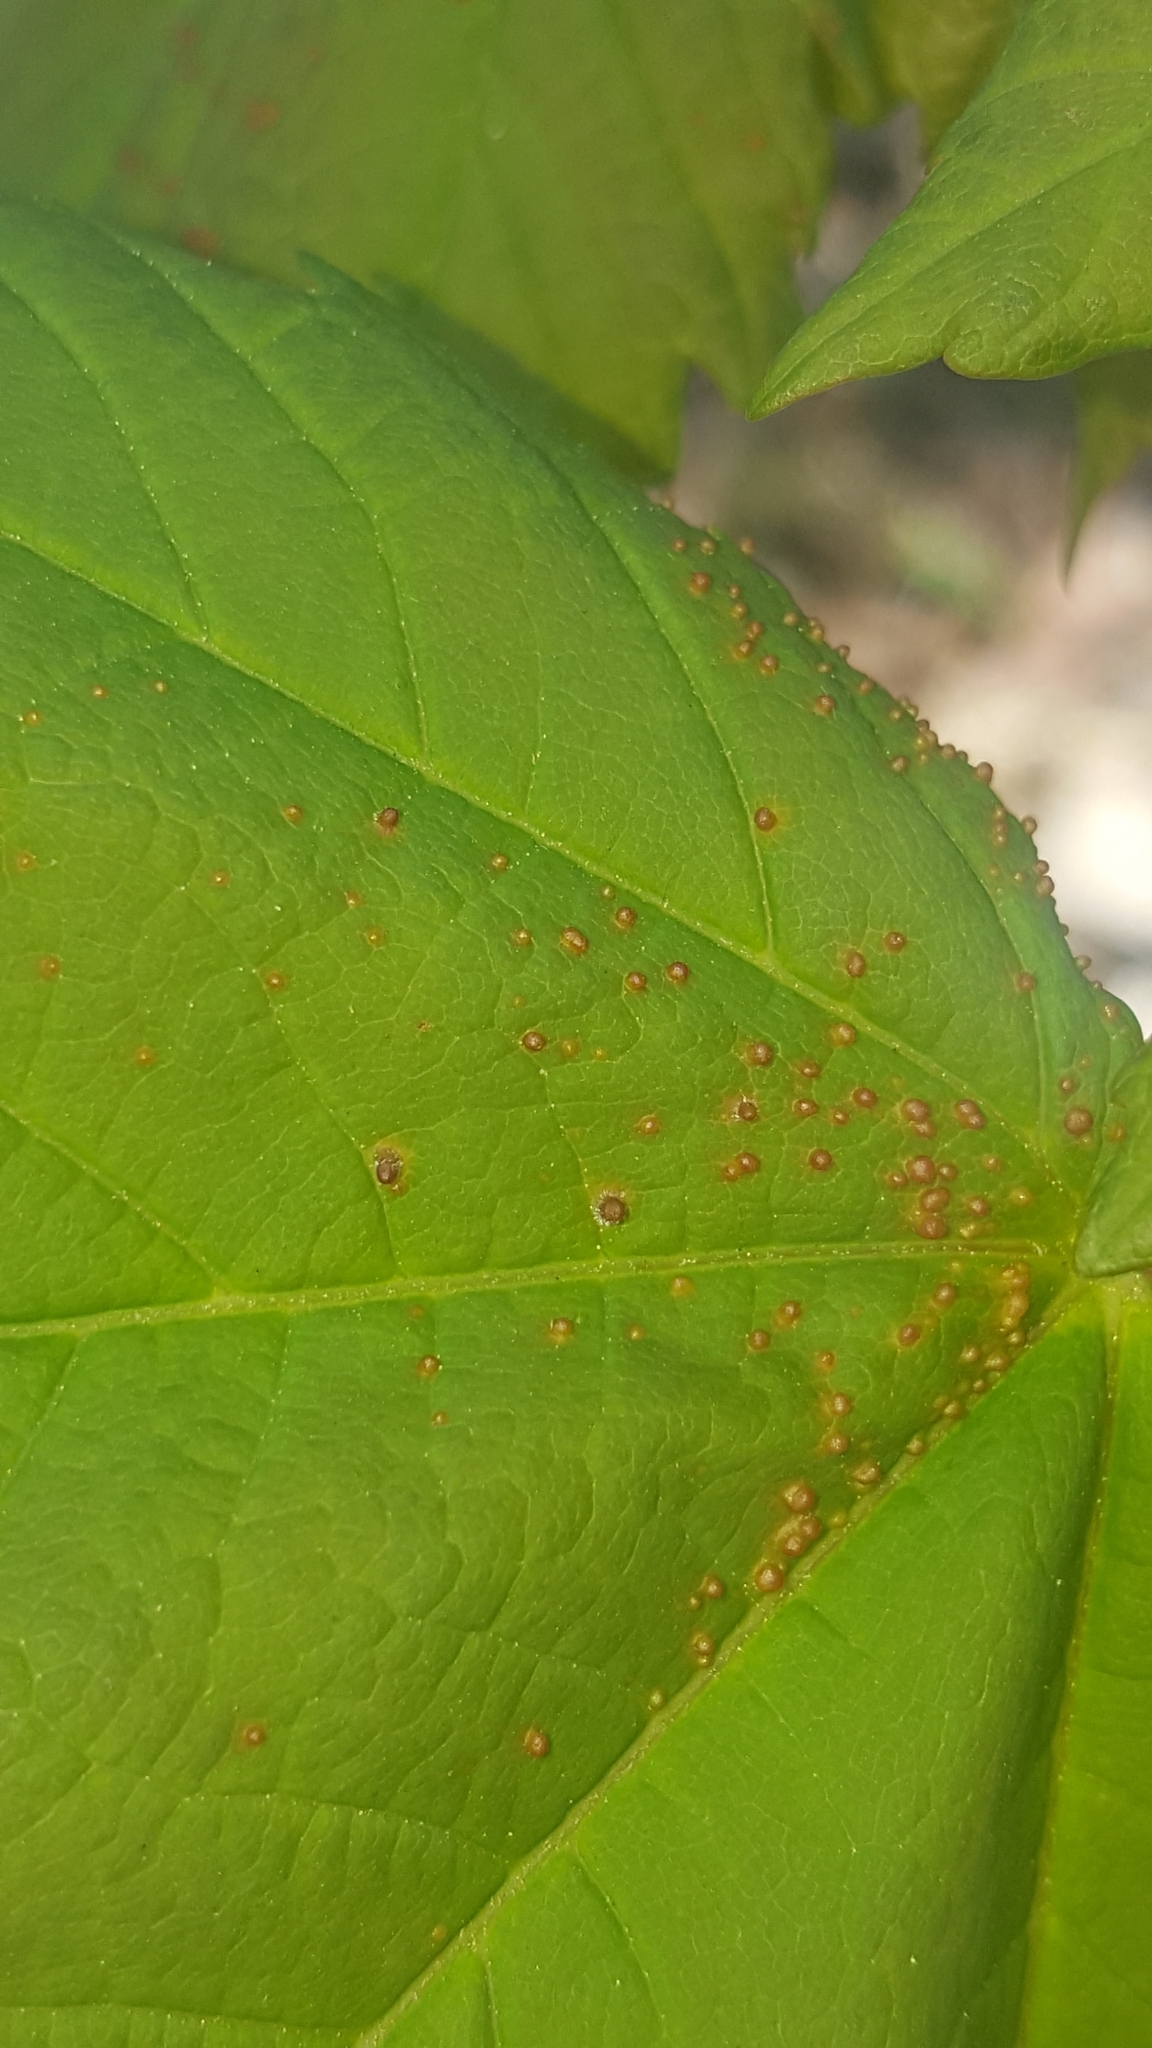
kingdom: Animalia
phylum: Arthropoda
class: Arachnida
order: Trombidiformes
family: Eriophyidae
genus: Aceria
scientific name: Aceria cephaloneus
